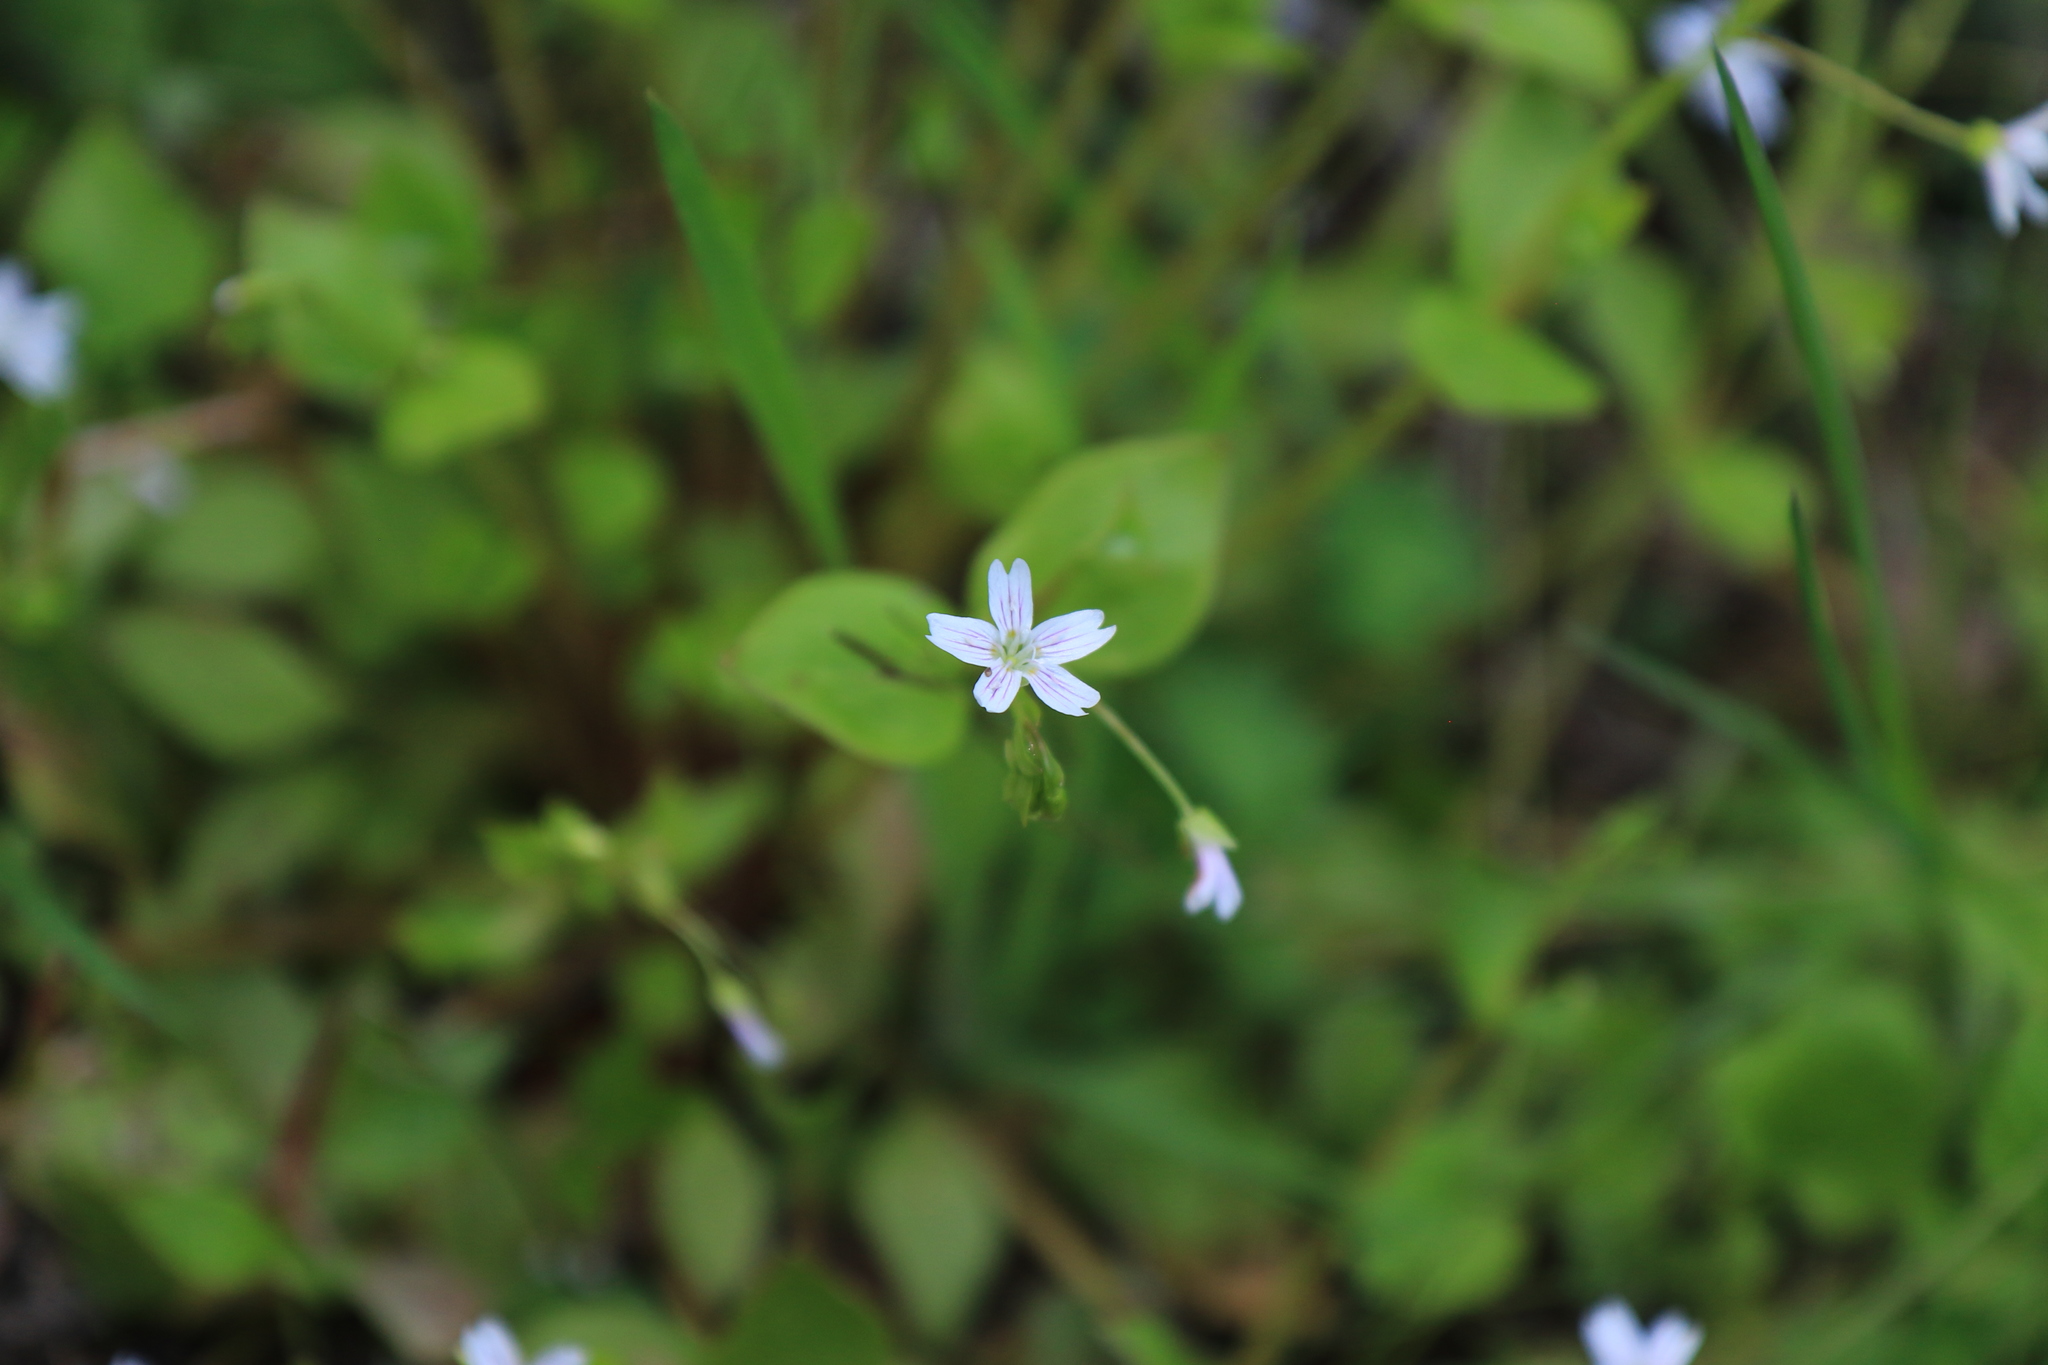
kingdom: Plantae
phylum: Tracheophyta
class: Magnoliopsida
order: Caryophyllales
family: Montiaceae
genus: Claytonia
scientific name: Claytonia sibirica
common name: Pink purslane
